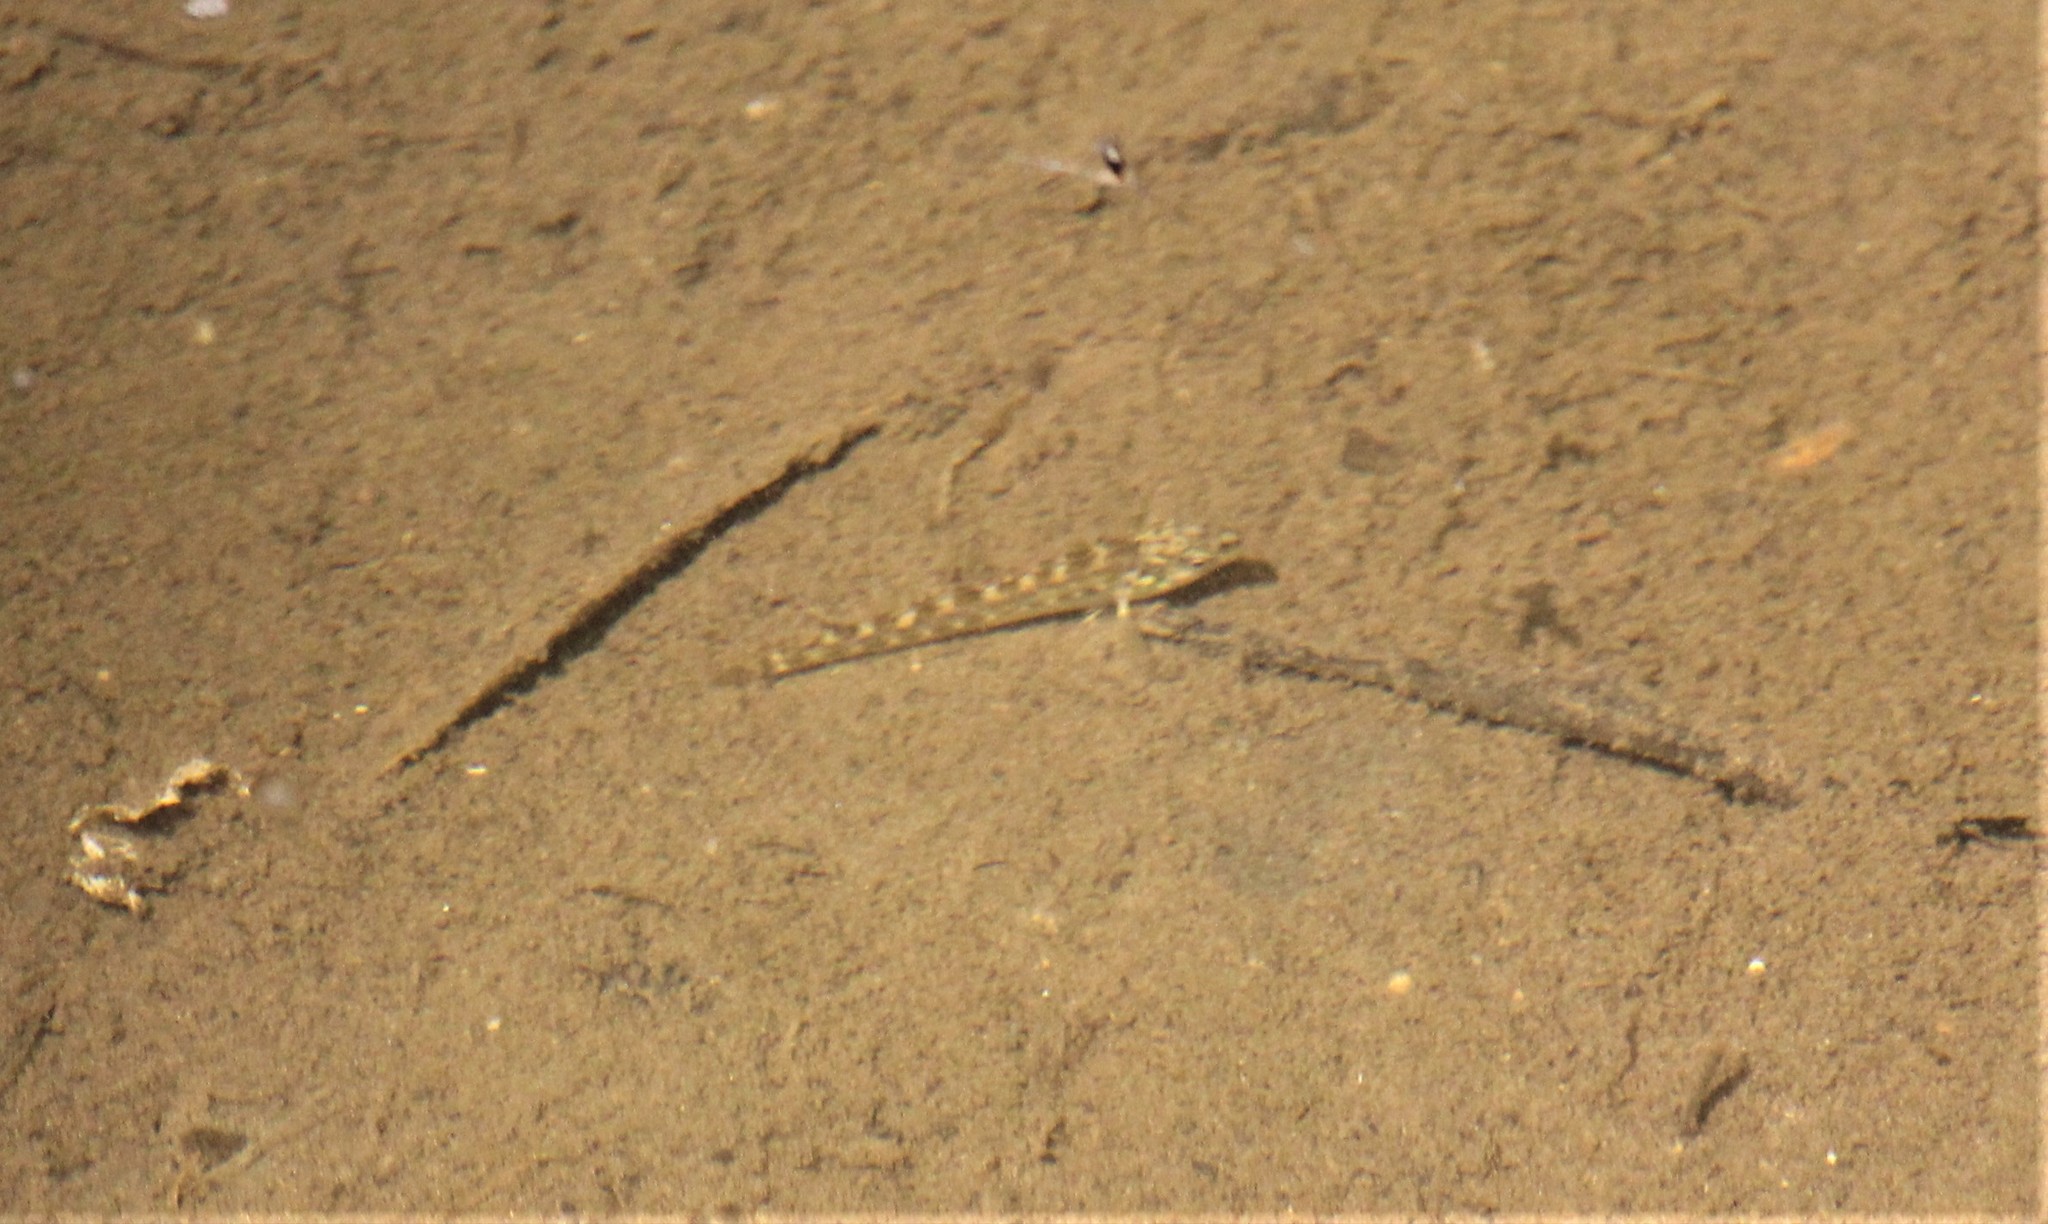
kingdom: Animalia
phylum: Chordata
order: Perciformes
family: Percidae
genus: Etheostoma
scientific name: Etheostoma exile
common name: Iowa darter
